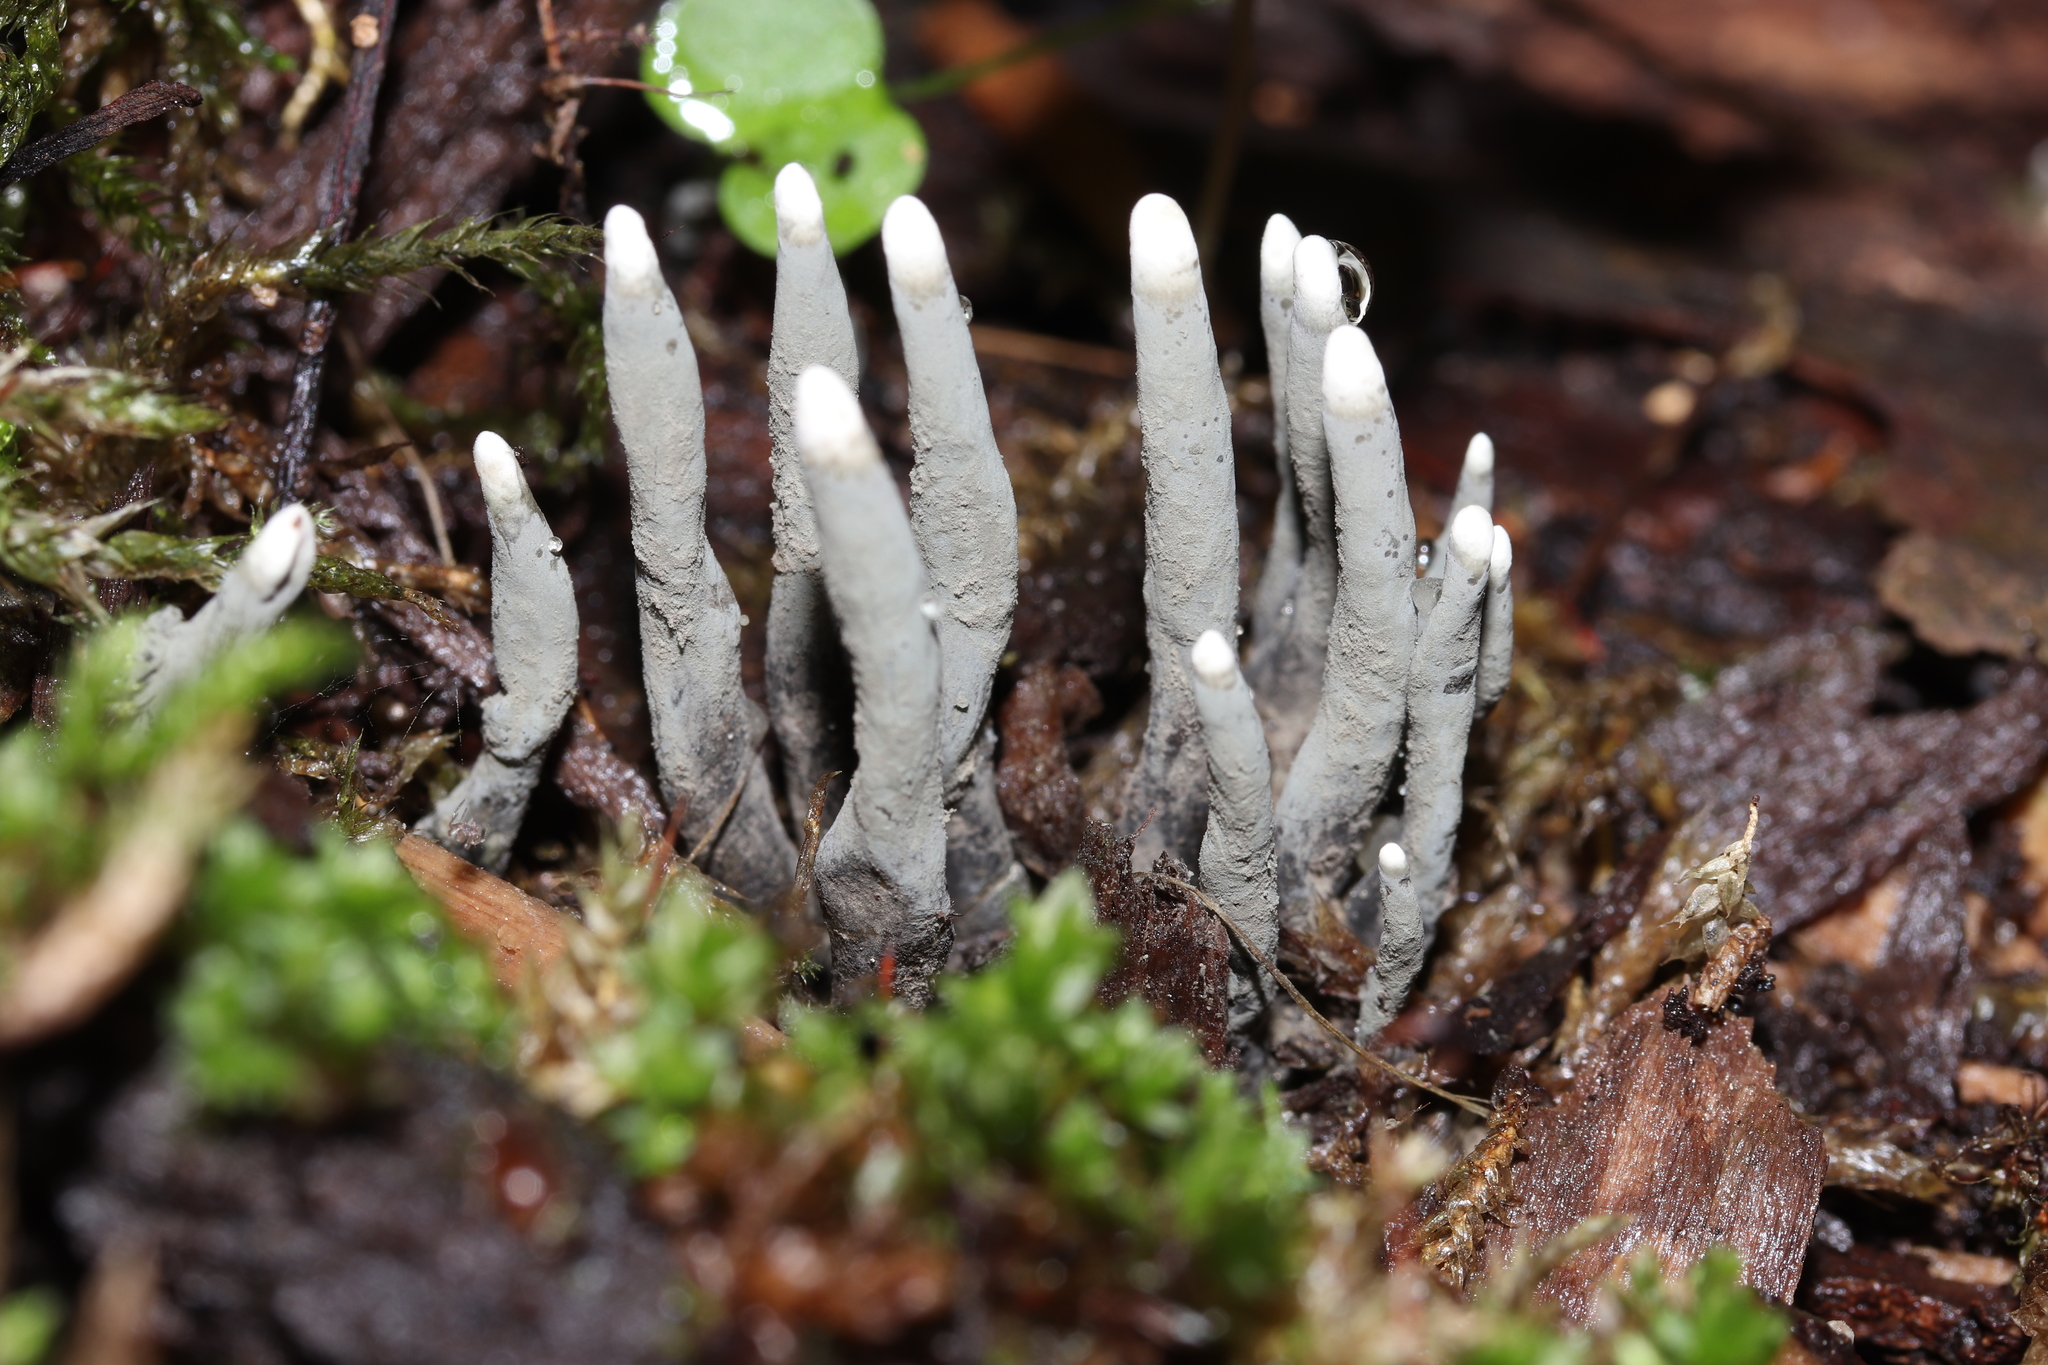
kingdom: Fungi
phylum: Ascomycota
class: Sordariomycetes
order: Xylariales
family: Xylariaceae
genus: Xylaria
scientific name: Xylaria polymorpha
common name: Dead man's fingers
